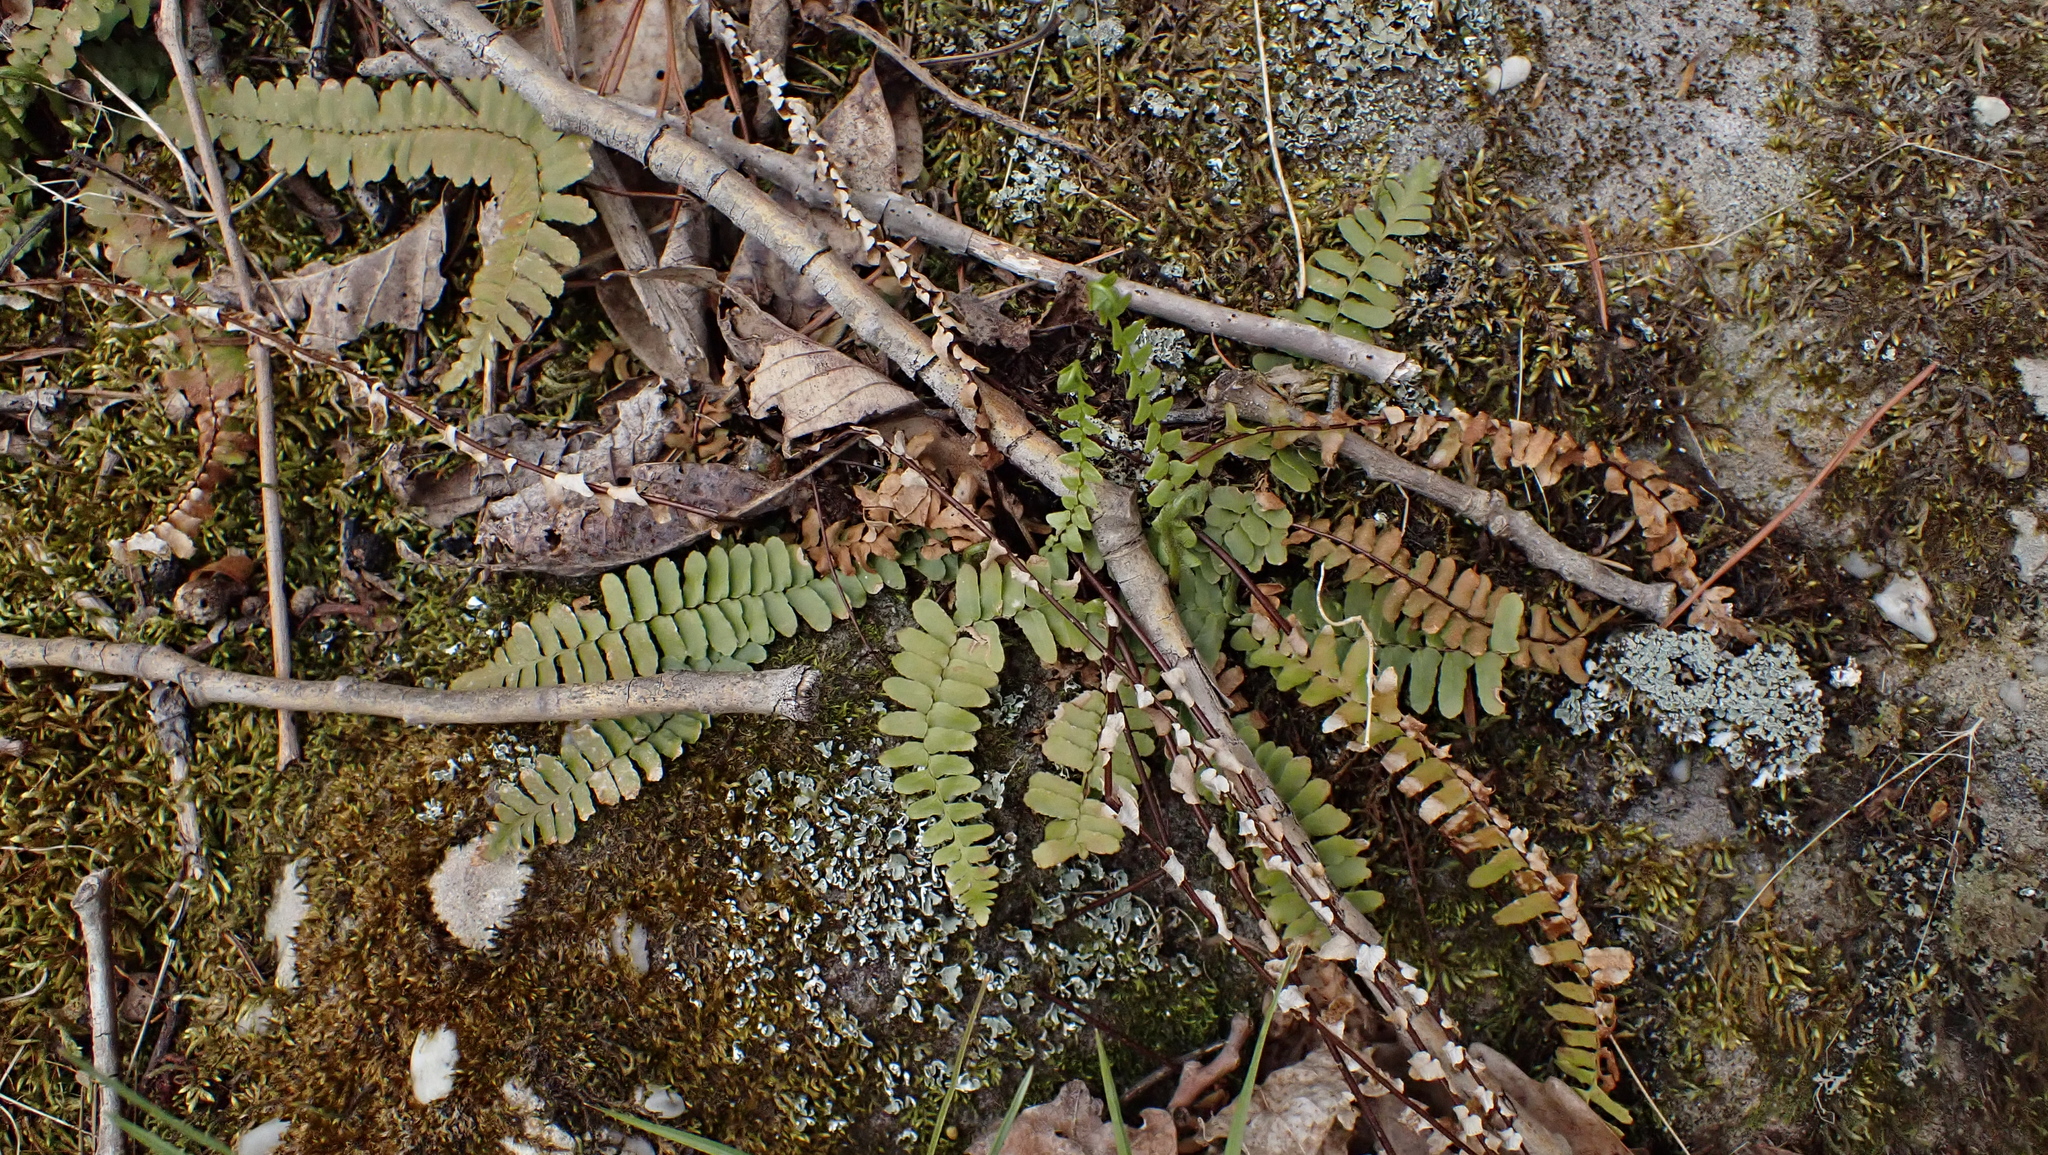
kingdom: Plantae
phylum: Tracheophyta
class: Polypodiopsida
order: Polypodiales
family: Aspleniaceae
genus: Asplenium
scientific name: Asplenium platyneuron
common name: Ebony spleenwort
